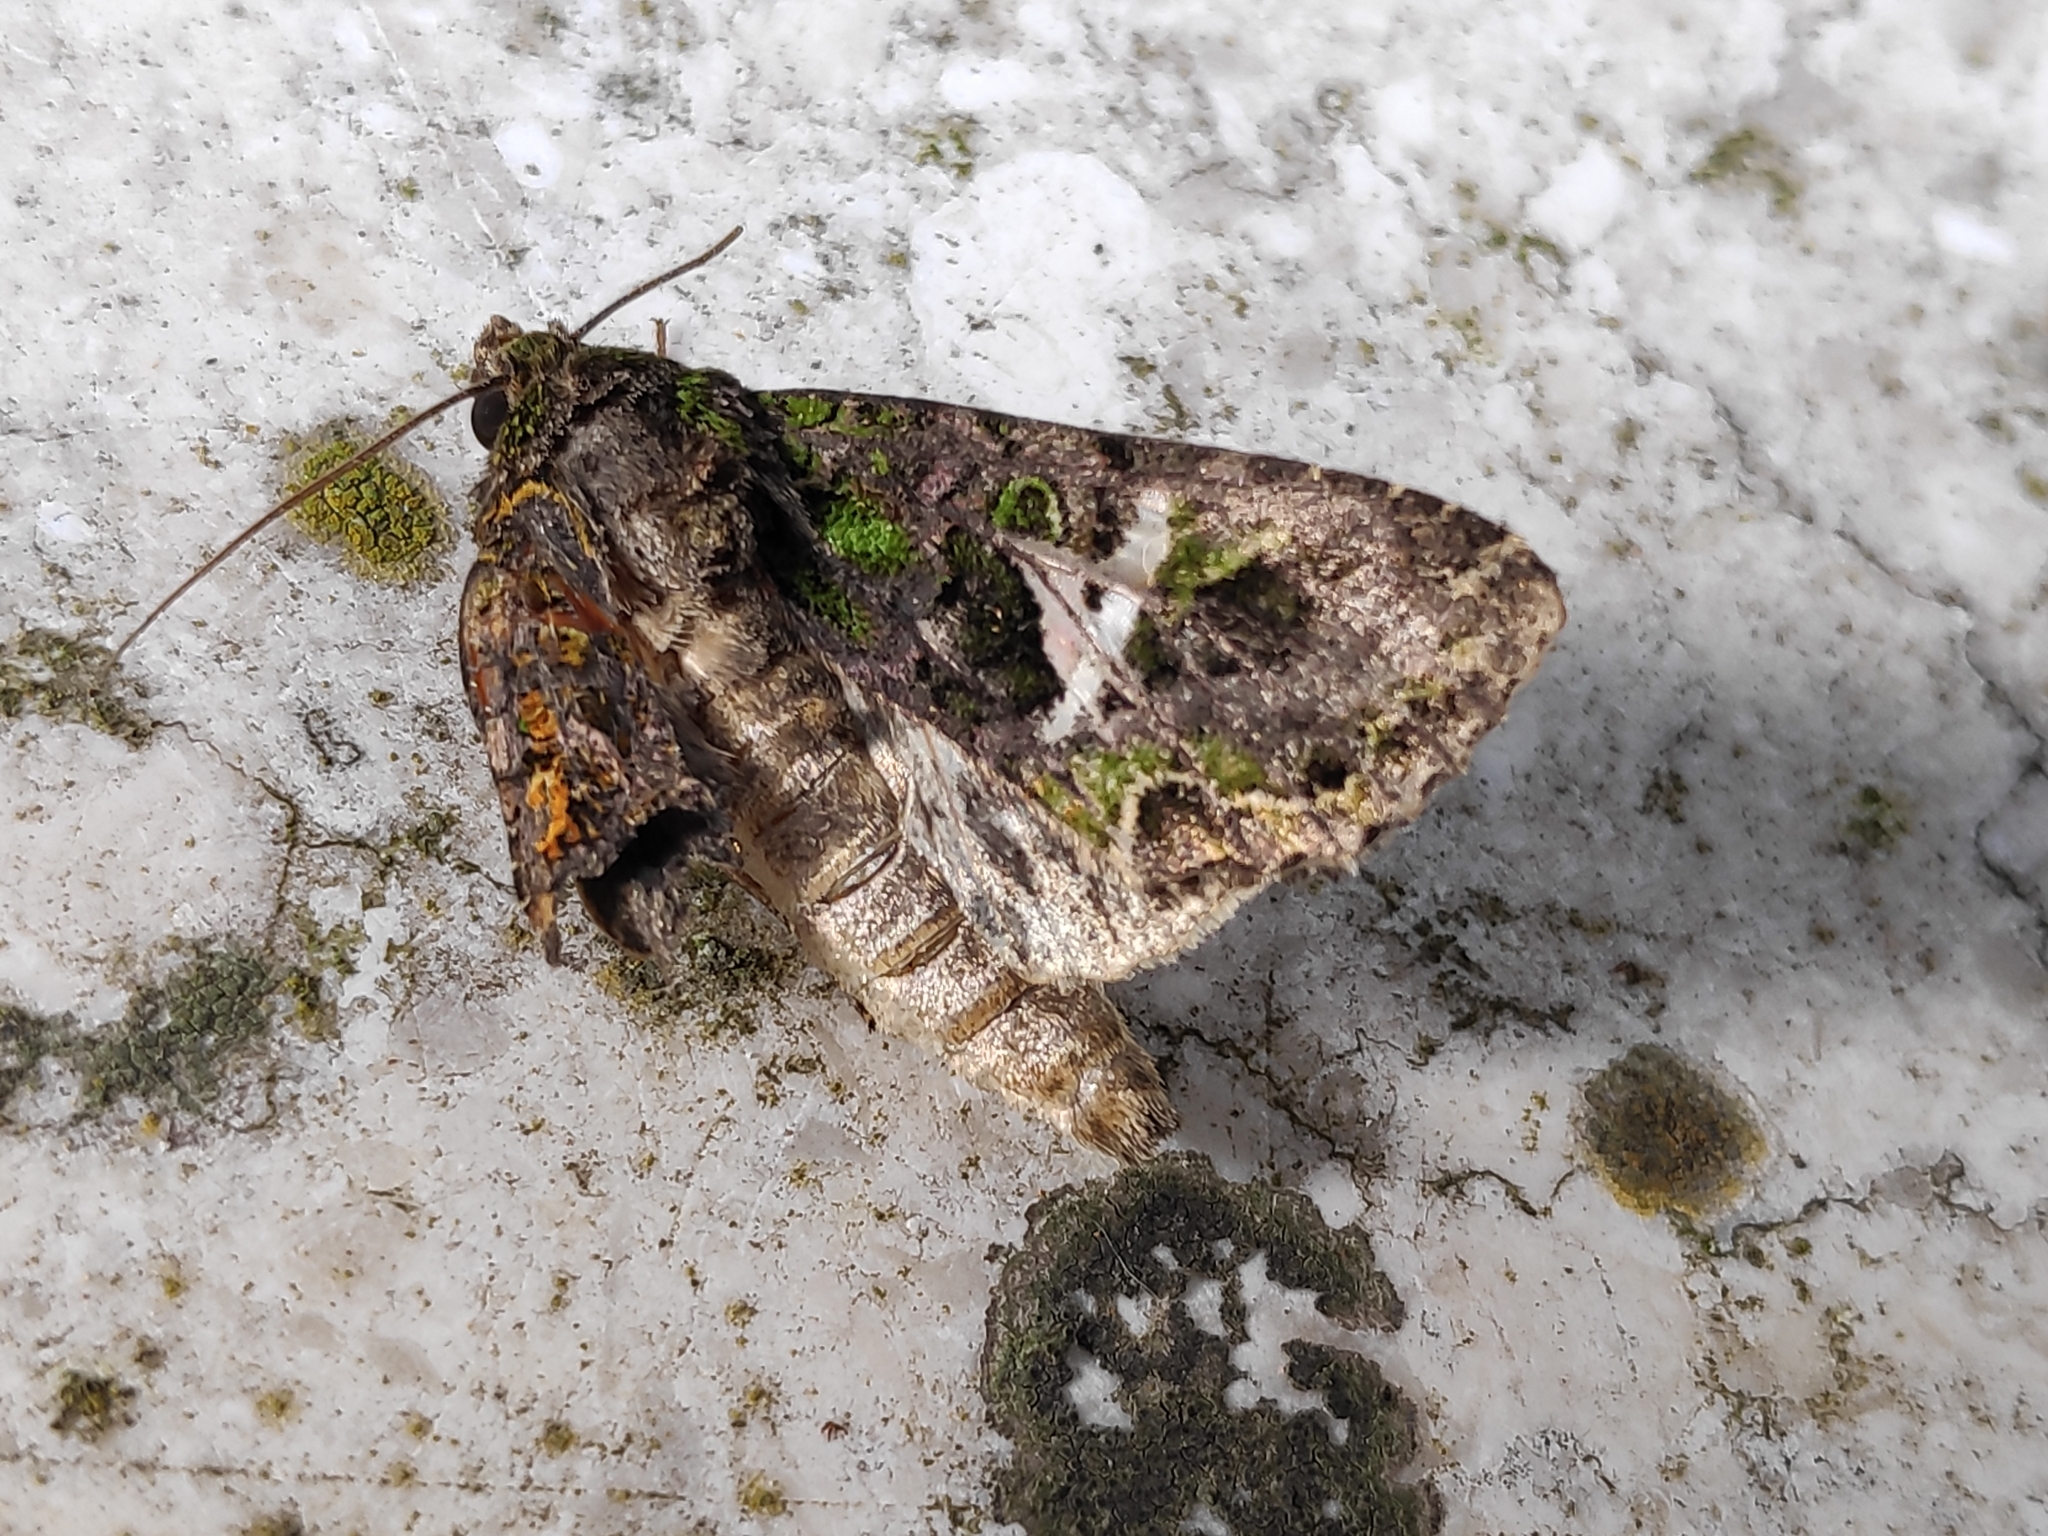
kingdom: Animalia
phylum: Arthropoda
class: Insecta
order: Lepidoptera
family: Noctuidae
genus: Trachea
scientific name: Trachea atriplicis
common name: Orache moth
